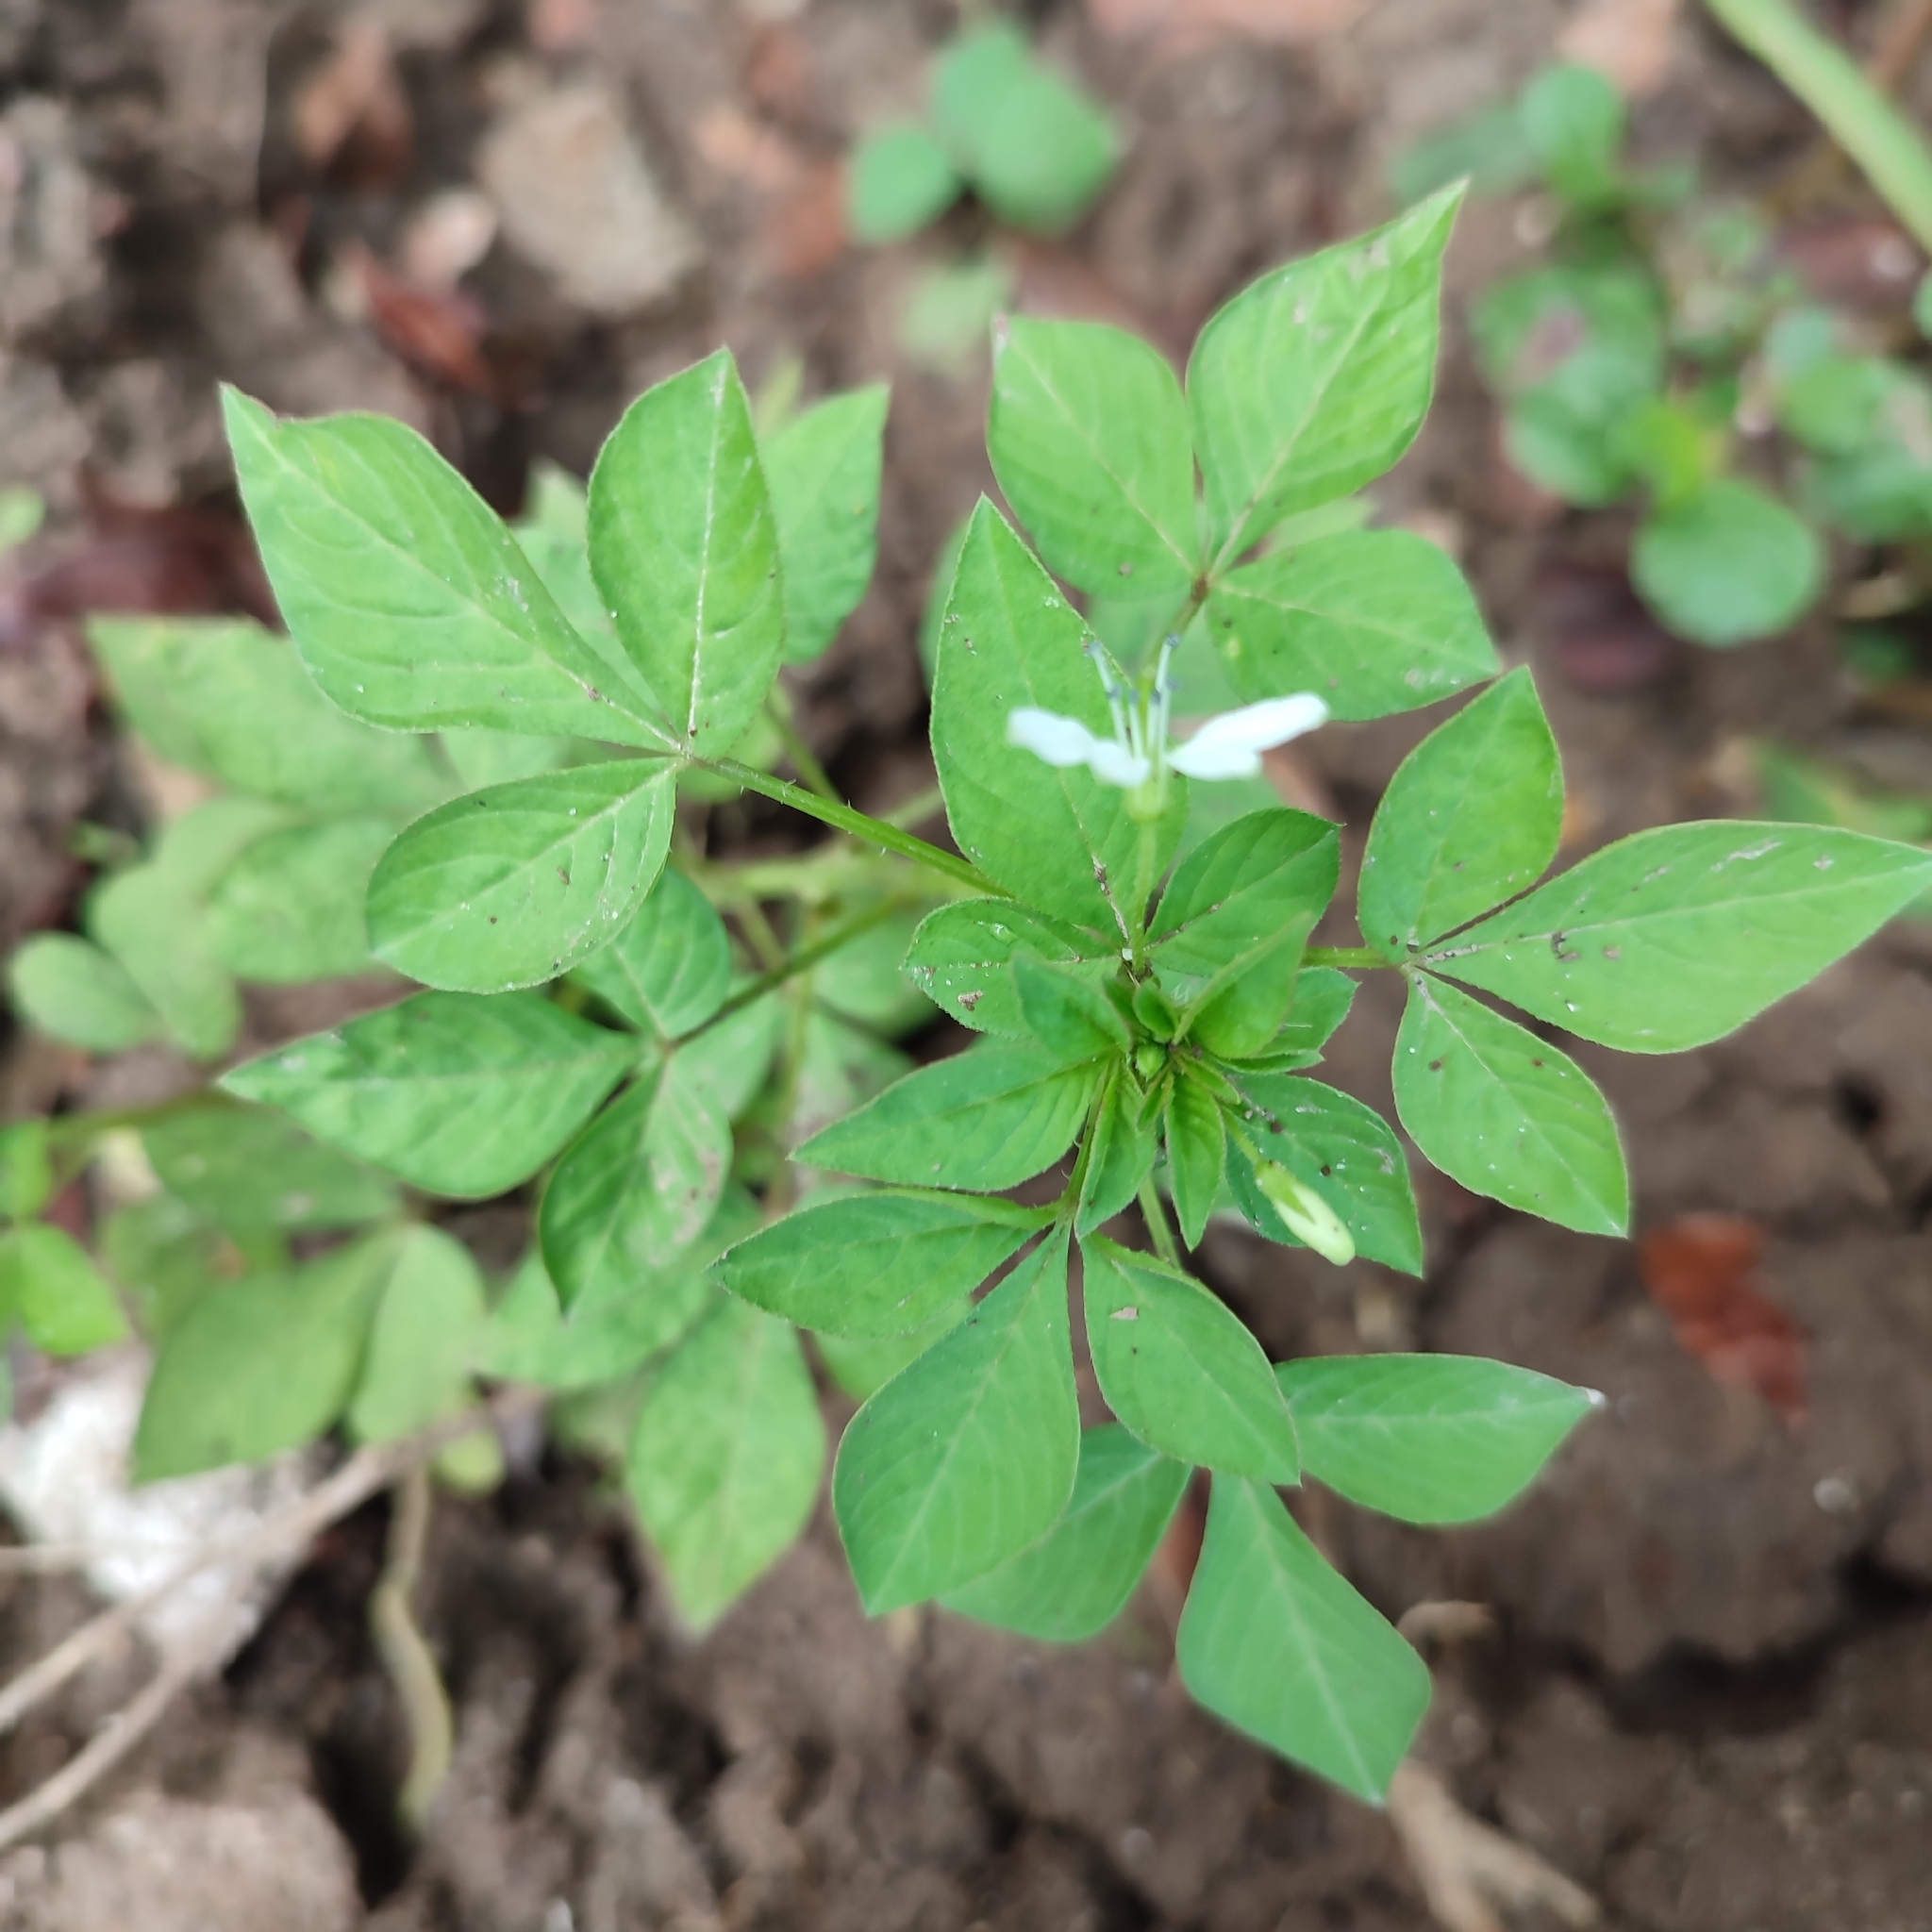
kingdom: Plantae
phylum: Tracheophyta
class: Magnoliopsida
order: Brassicales
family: Cleomaceae
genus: Sieruela
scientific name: Sieruela rutidosperma
